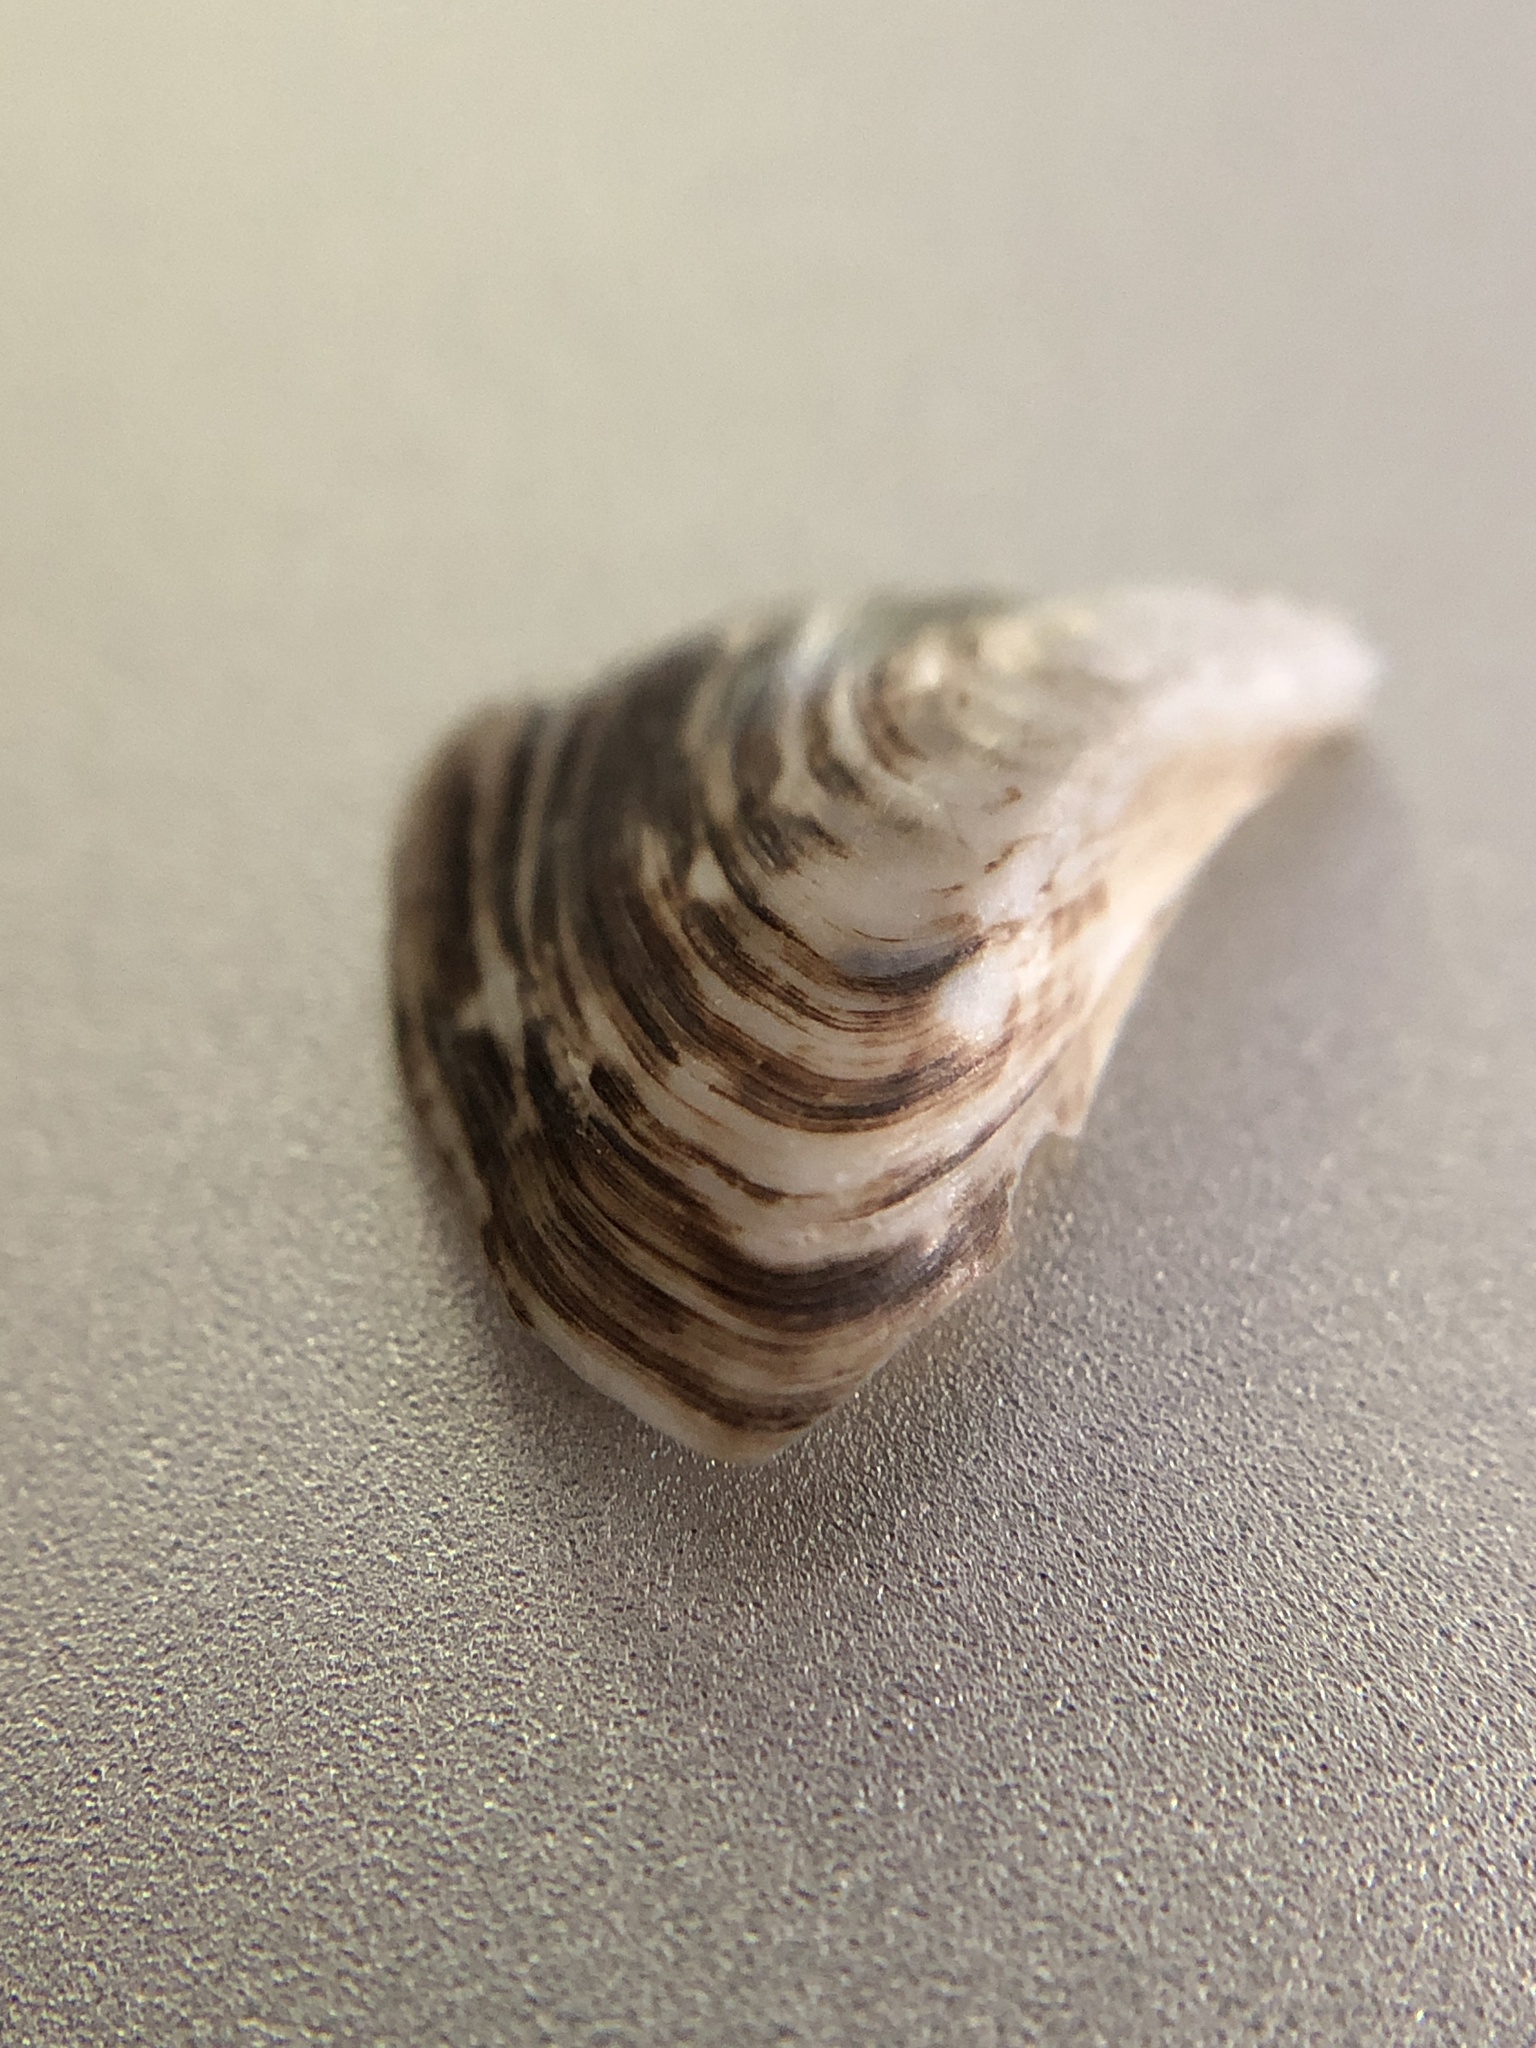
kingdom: Animalia
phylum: Mollusca
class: Bivalvia
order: Myida
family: Dreissenidae
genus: Dreissena
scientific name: Dreissena polymorpha
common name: Zebra mussel
